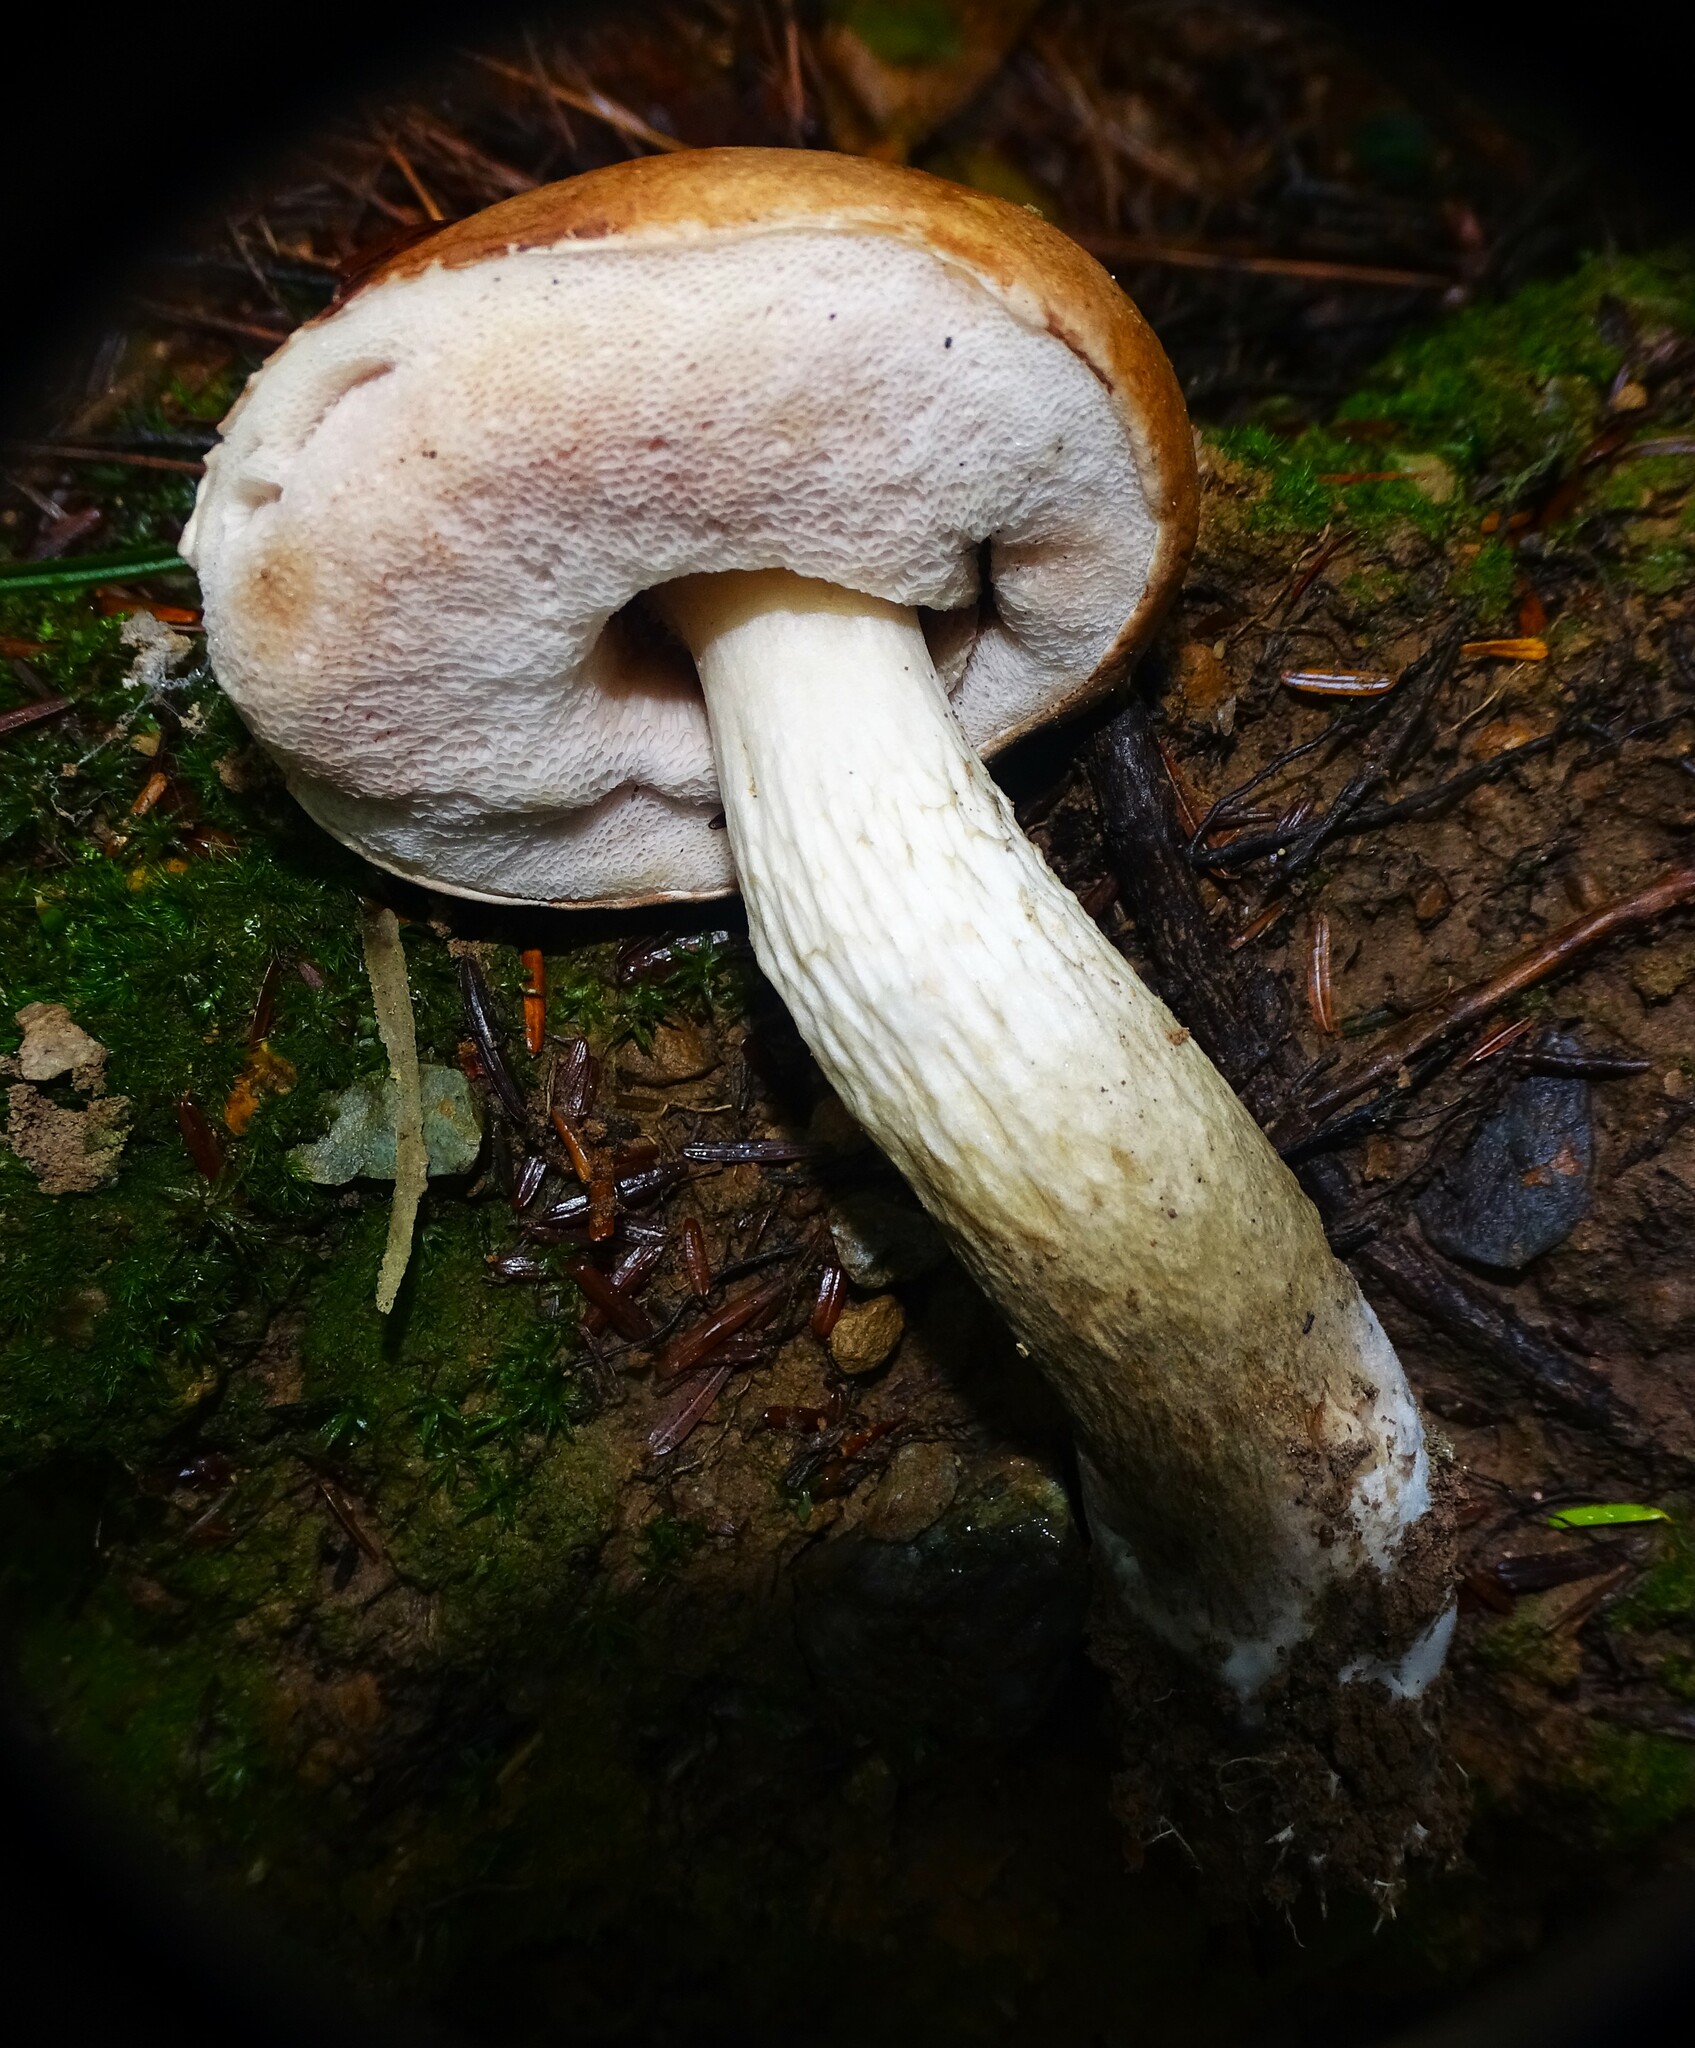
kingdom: Fungi
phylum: Basidiomycota
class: Agaricomycetes
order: Boletales
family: Boletaceae
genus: Tylopilus
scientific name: Tylopilus felleus
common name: Bitter bolete
